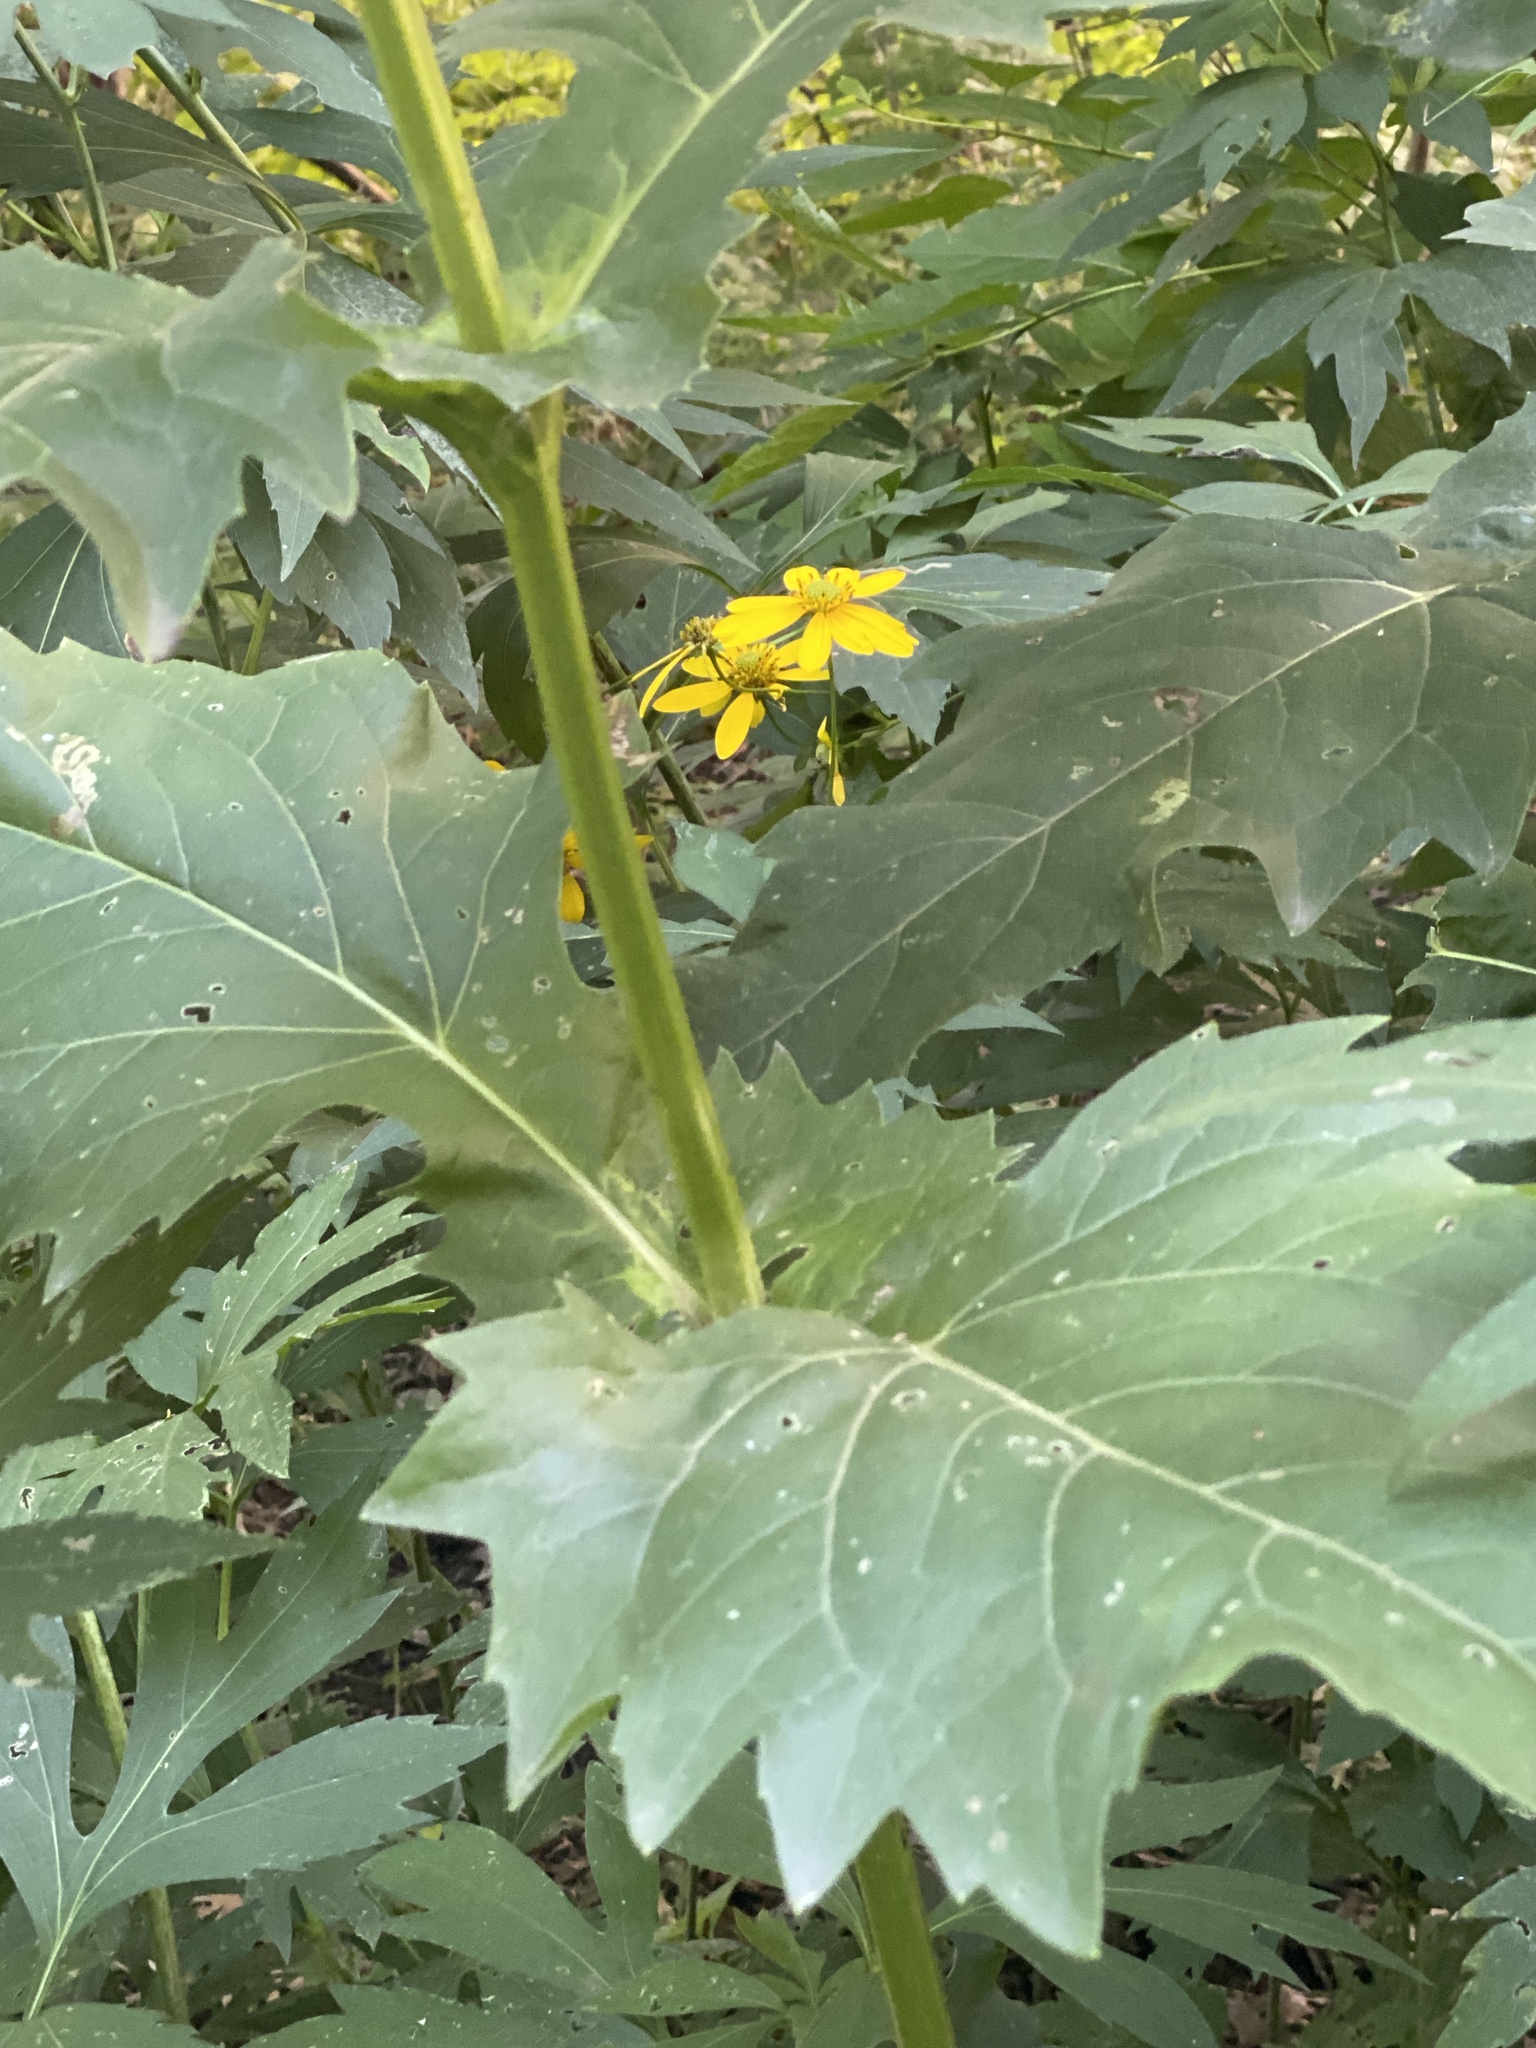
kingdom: Plantae
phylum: Tracheophyta
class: Magnoliopsida
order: Asterales
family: Asteraceae
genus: Silphium
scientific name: Silphium perfoliatum
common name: Cup-plant
